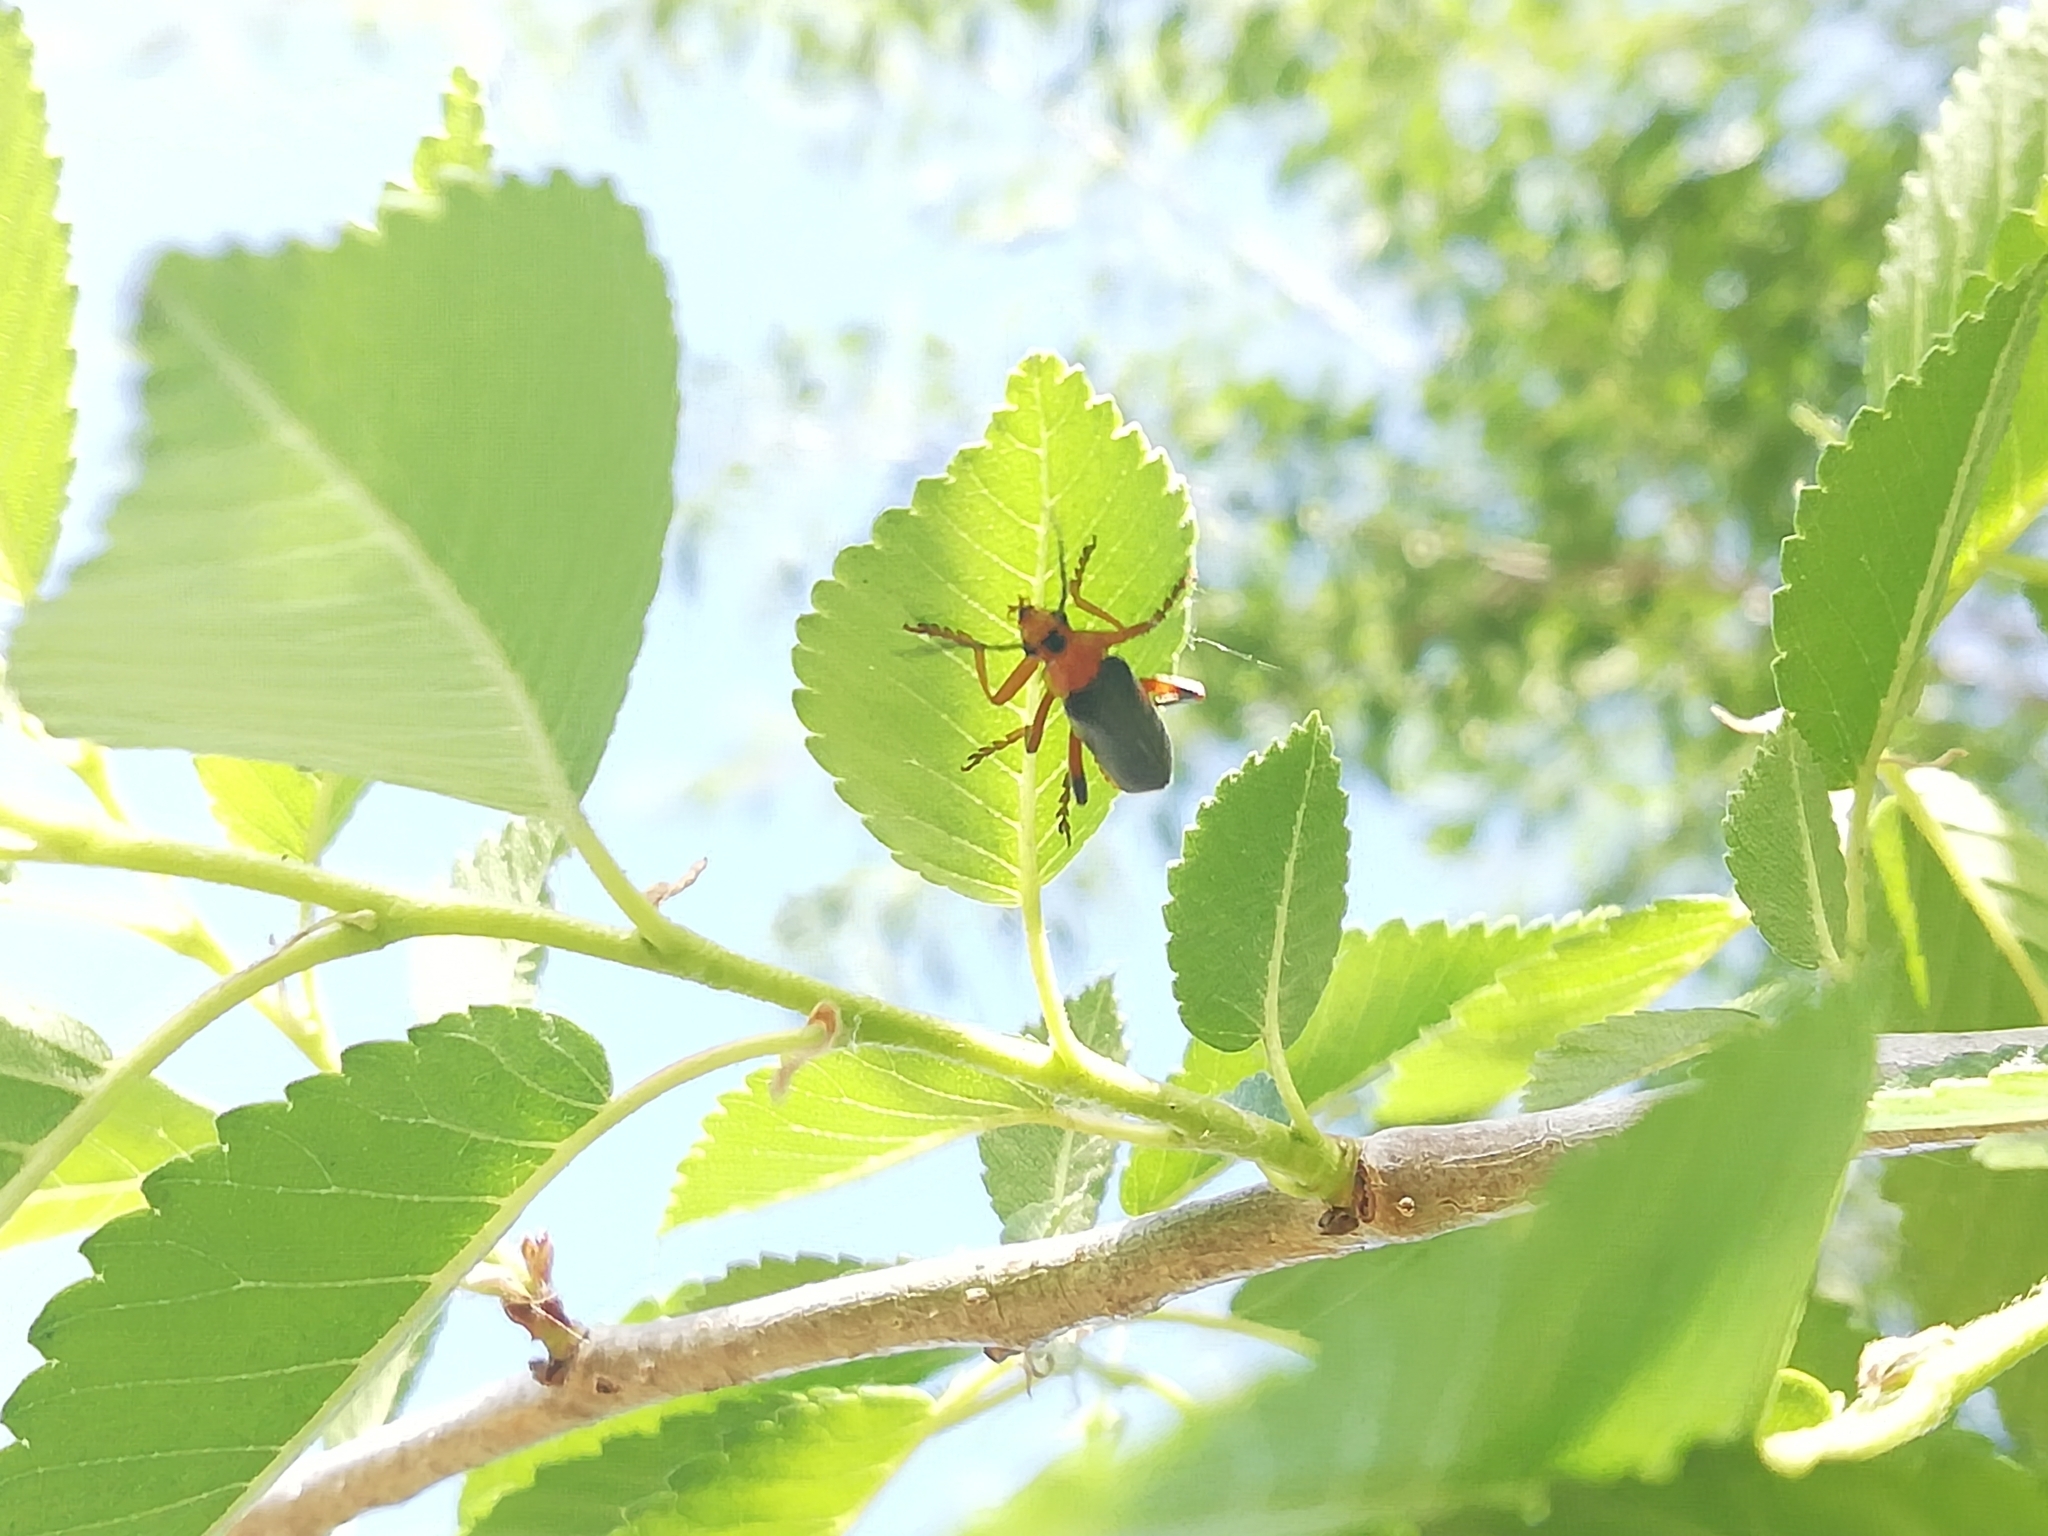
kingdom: Animalia
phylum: Arthropoda
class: Insecta
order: Coleoptera
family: Cantharidae
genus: Cantharis
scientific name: Cantharis livida
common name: Livid soldier beetle
